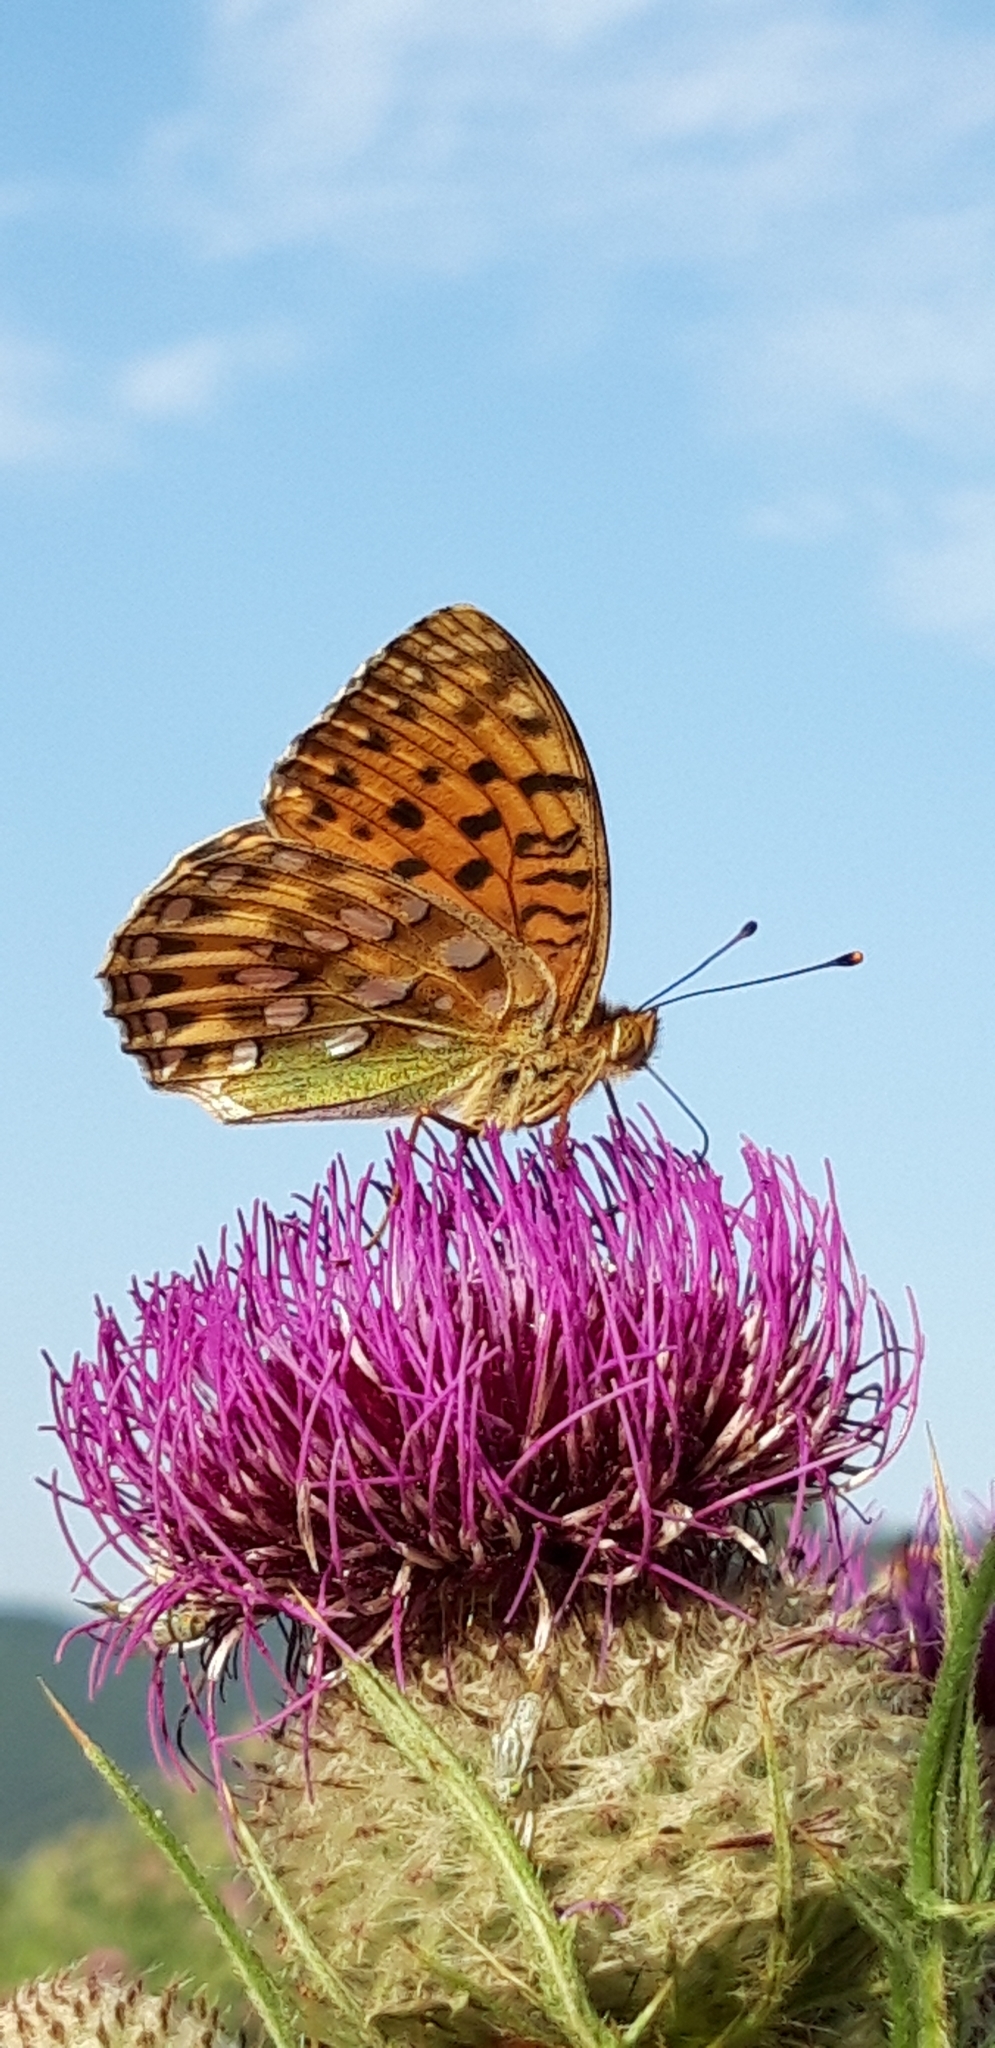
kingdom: Animalia
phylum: Arthropoda
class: Insecta
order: Lepidoptera
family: Nymphalidae
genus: Speyeria
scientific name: Speyeria aglaja
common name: Dark green fritillary
